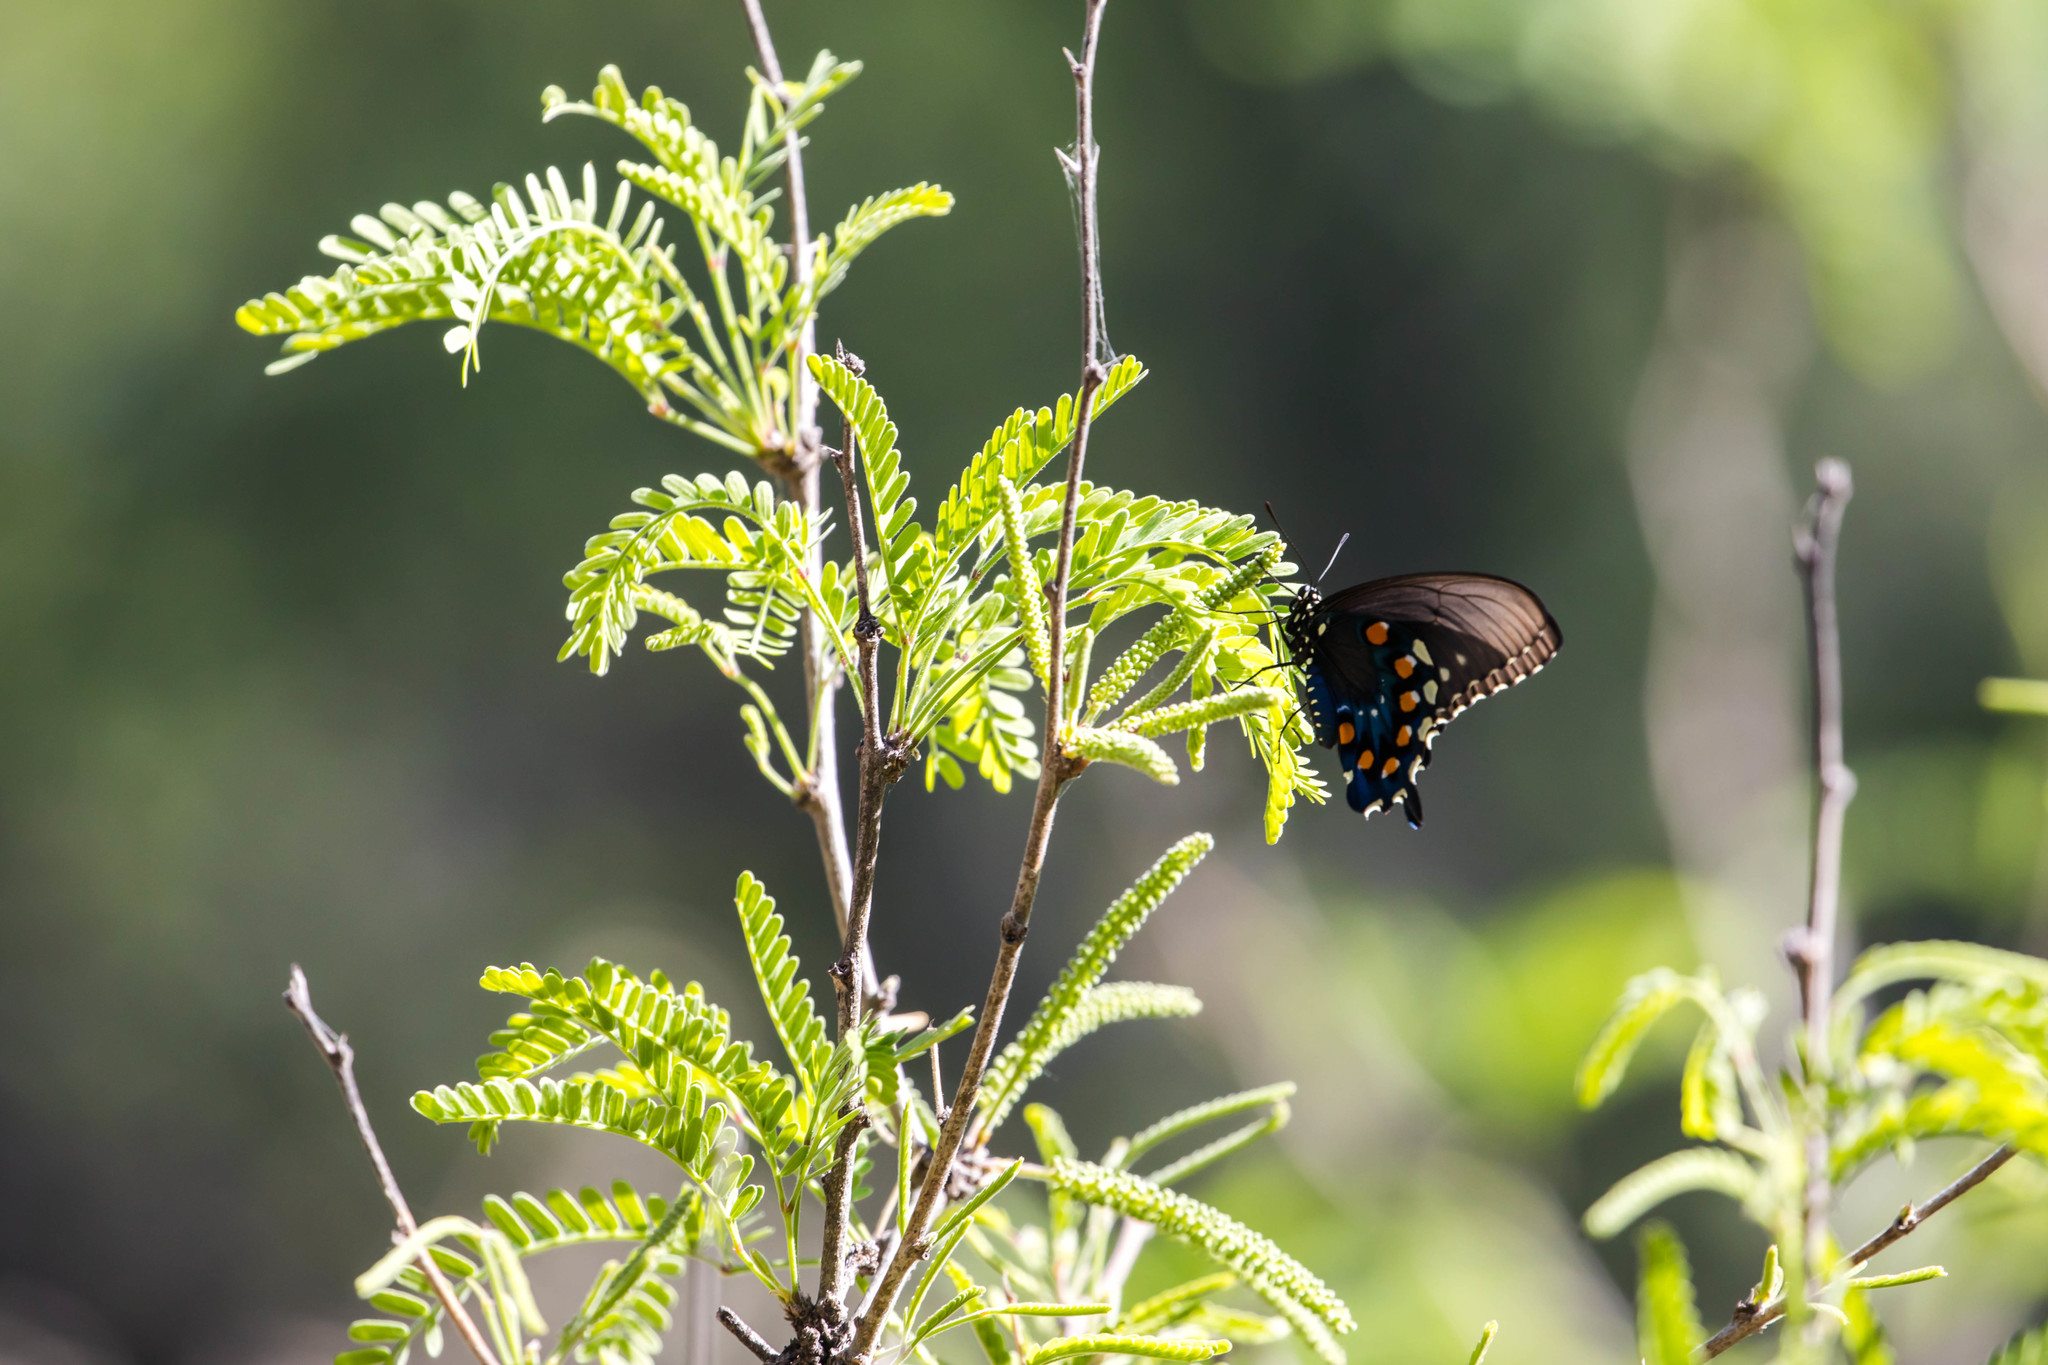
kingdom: Animalia
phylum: Arthropoda
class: Insecta
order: Lepidoptera
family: Papilionidae
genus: Battus
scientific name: Battus philenor
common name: Pipevine swallowtail
